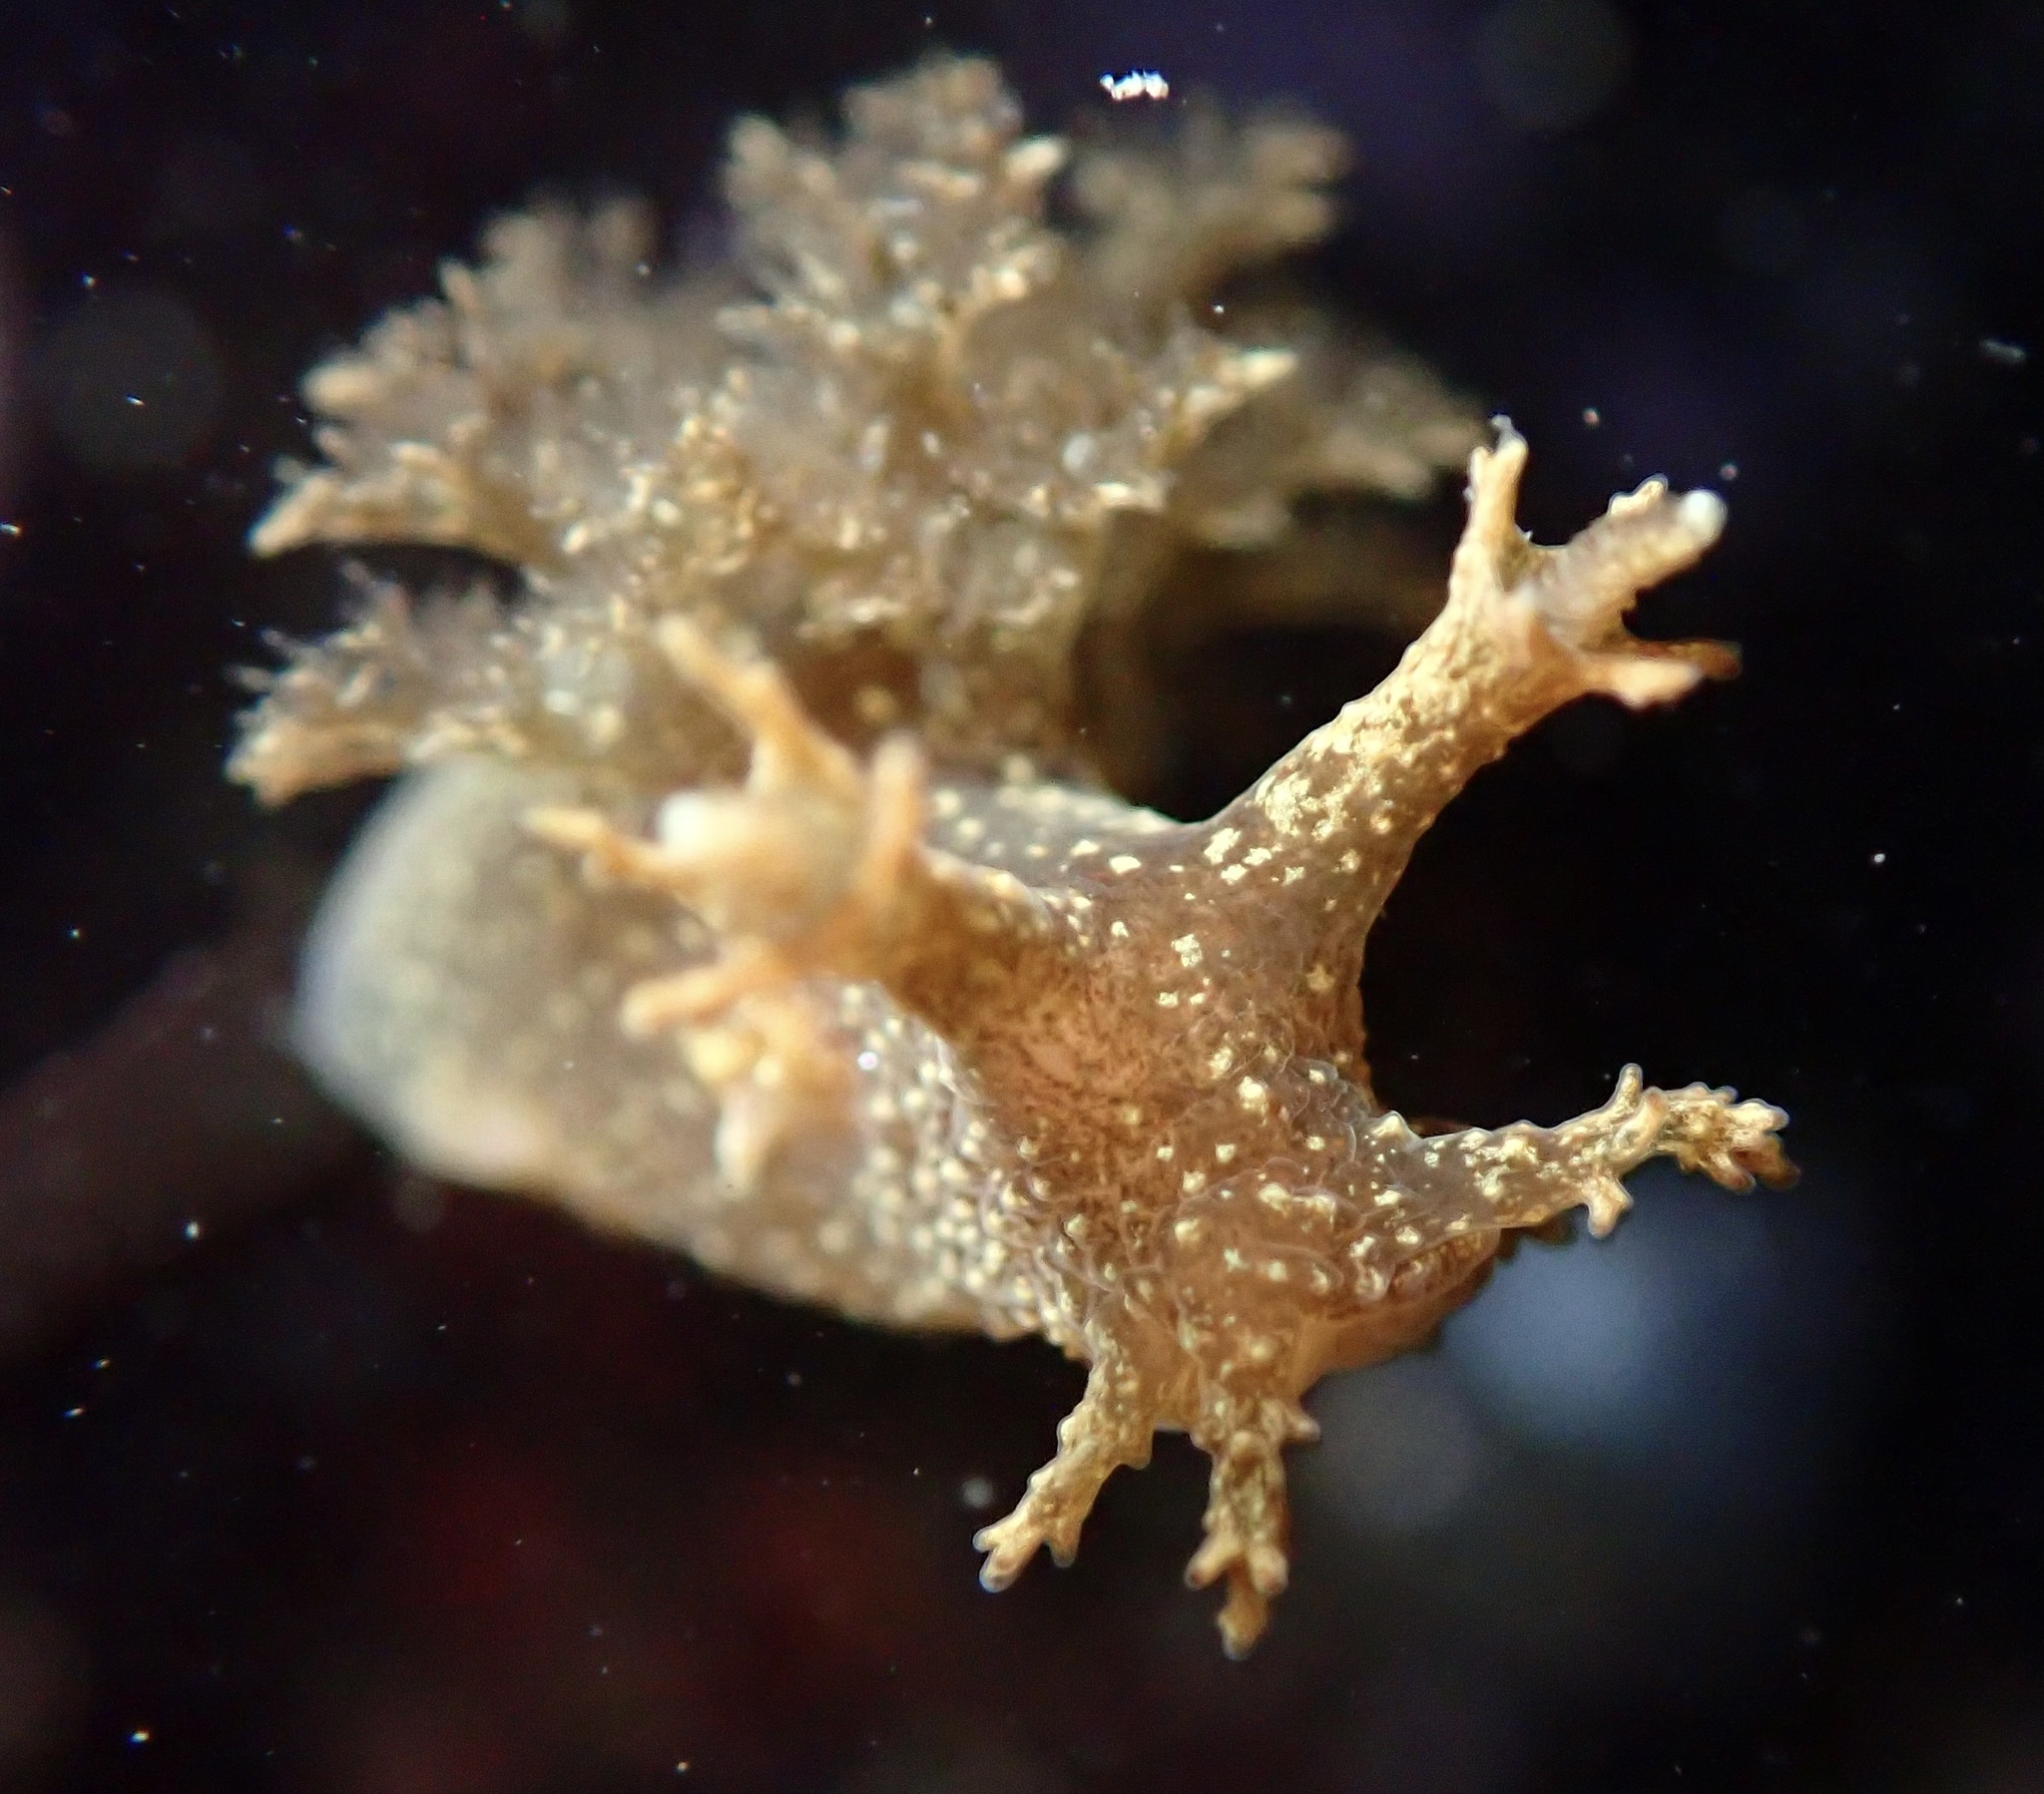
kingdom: Animalia
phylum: Mollusca
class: Gastropoda
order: Nudibranchia
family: Dendronotidae
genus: Dendronotus
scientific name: Dendronotus subramosus
